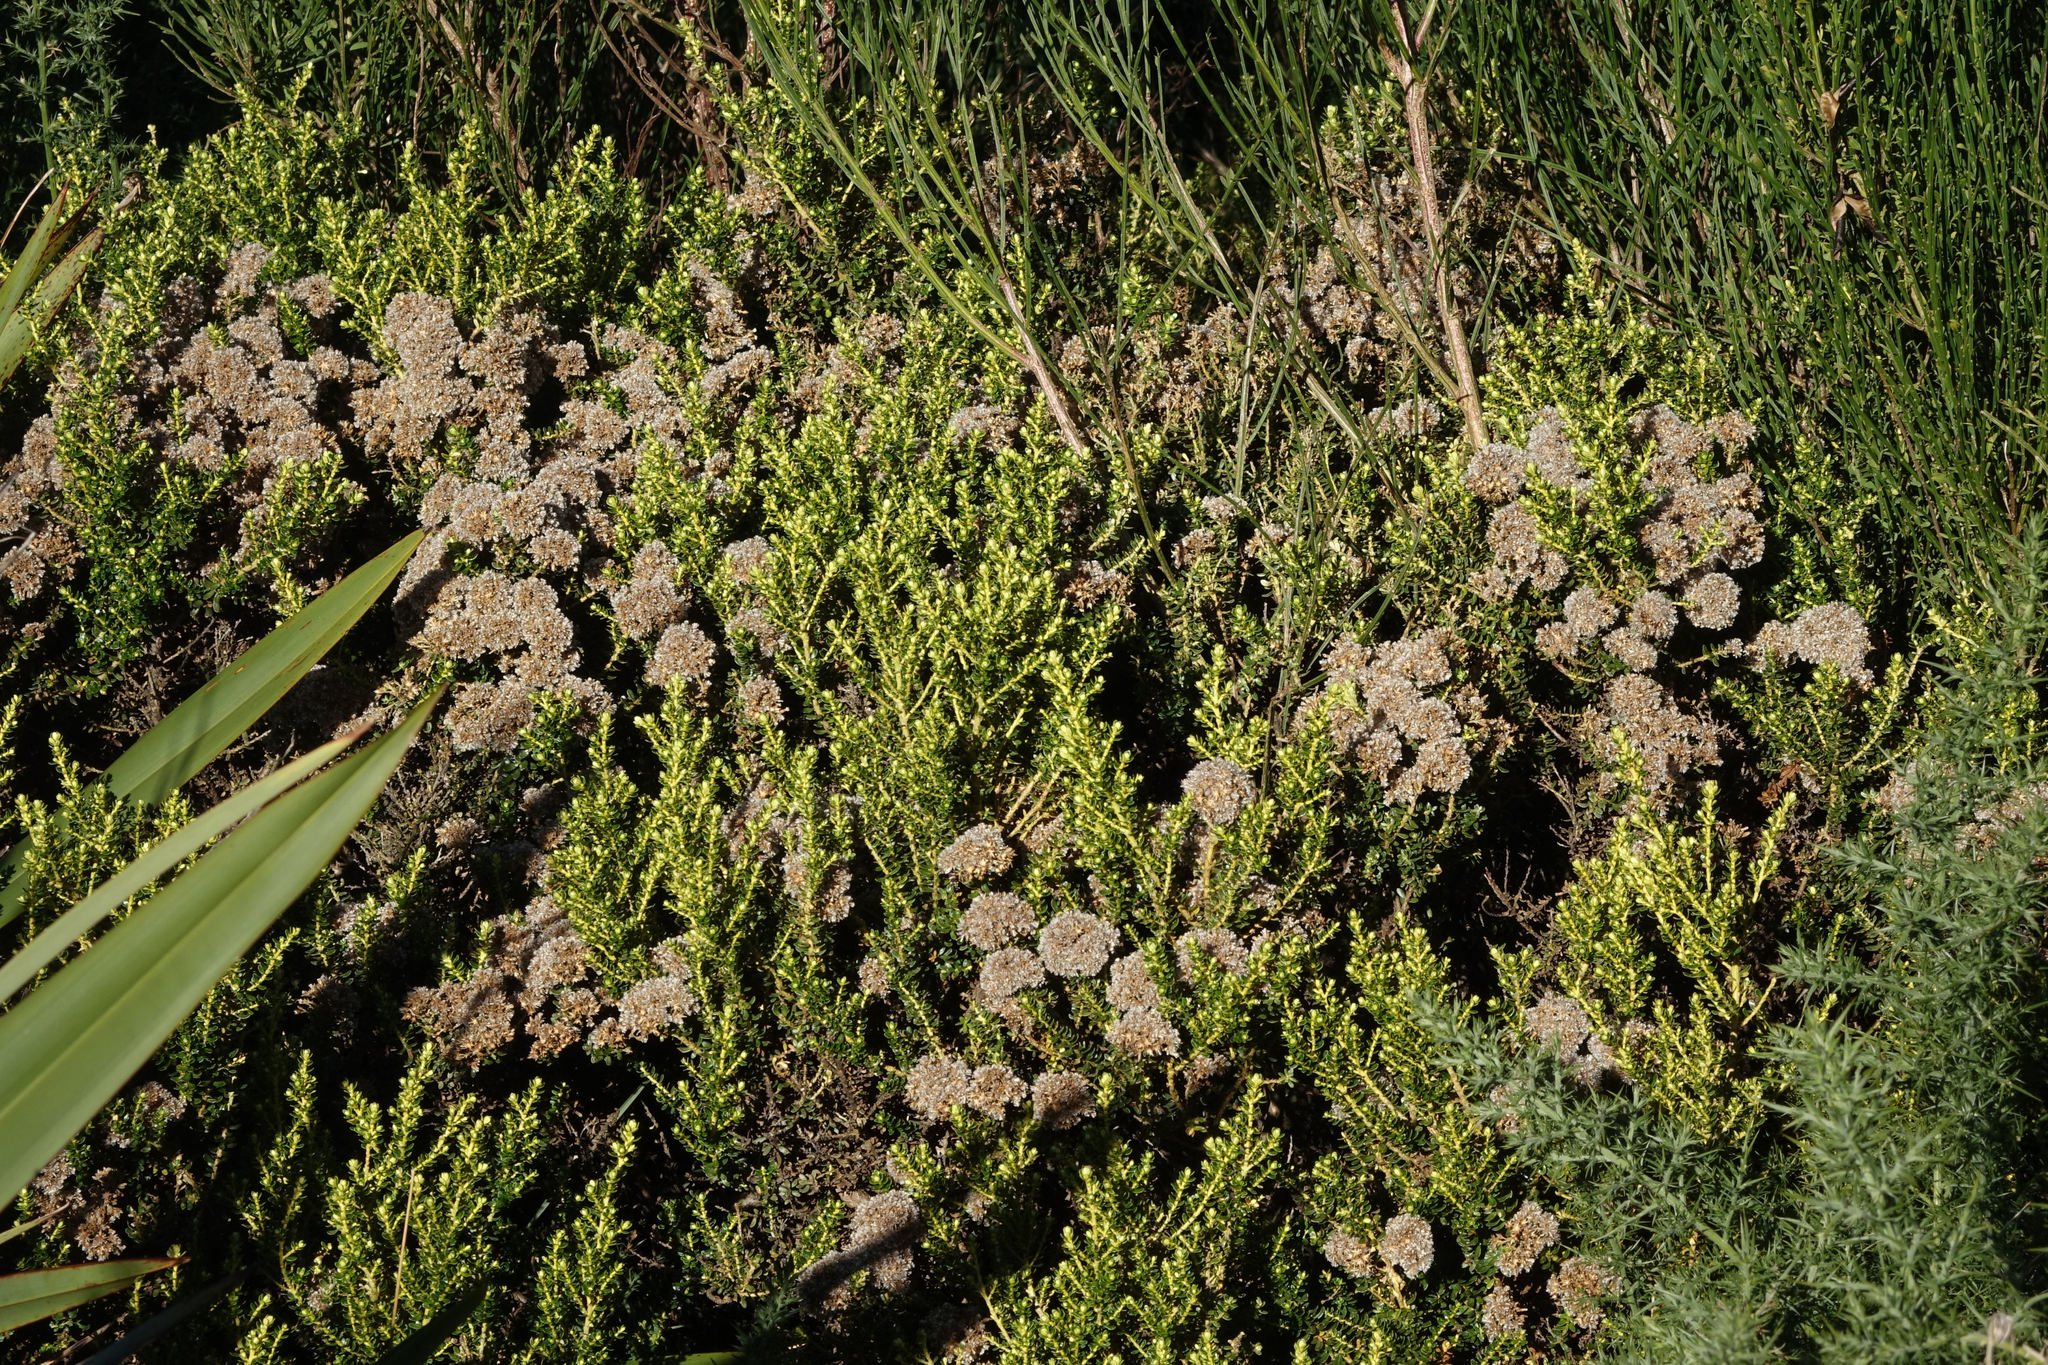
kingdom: Plantae
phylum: Tracheophyta
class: Magnoliopsida
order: Asterales
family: Asteraceae
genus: Ozothamnus
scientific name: Ozothamnus leptophyllus
